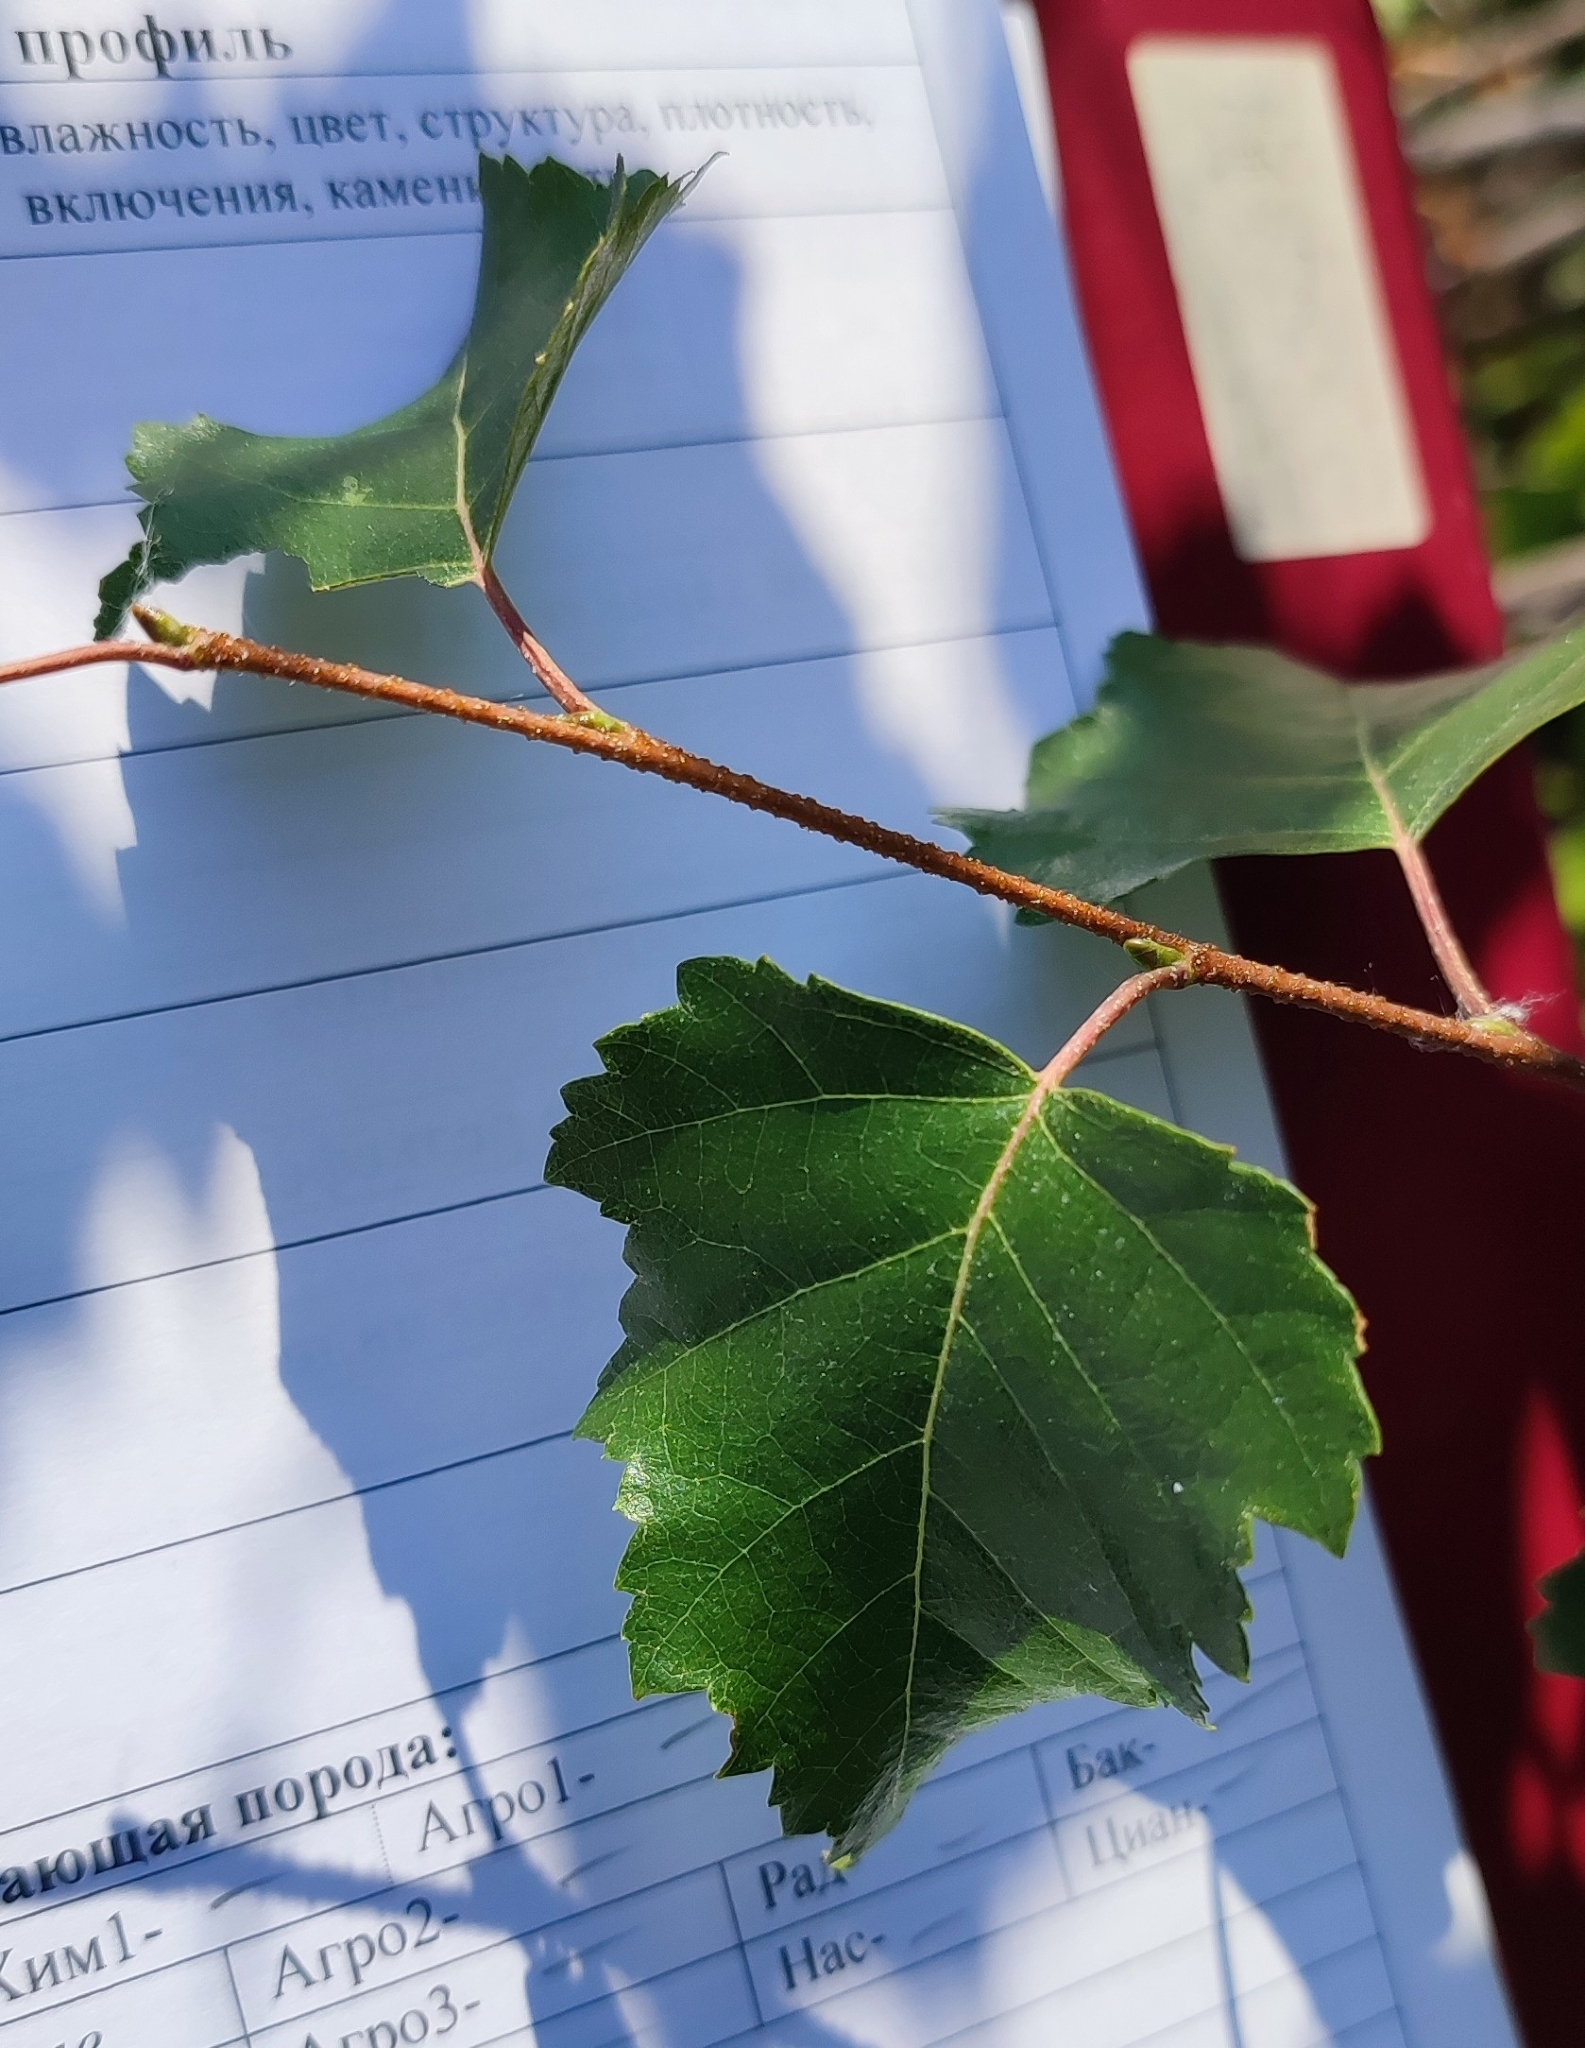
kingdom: Plantae
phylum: Tracheophyta
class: Magnoliopsida
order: Fagales
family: Betulaceae
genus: Betula
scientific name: Betula pendula
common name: Silver birch
